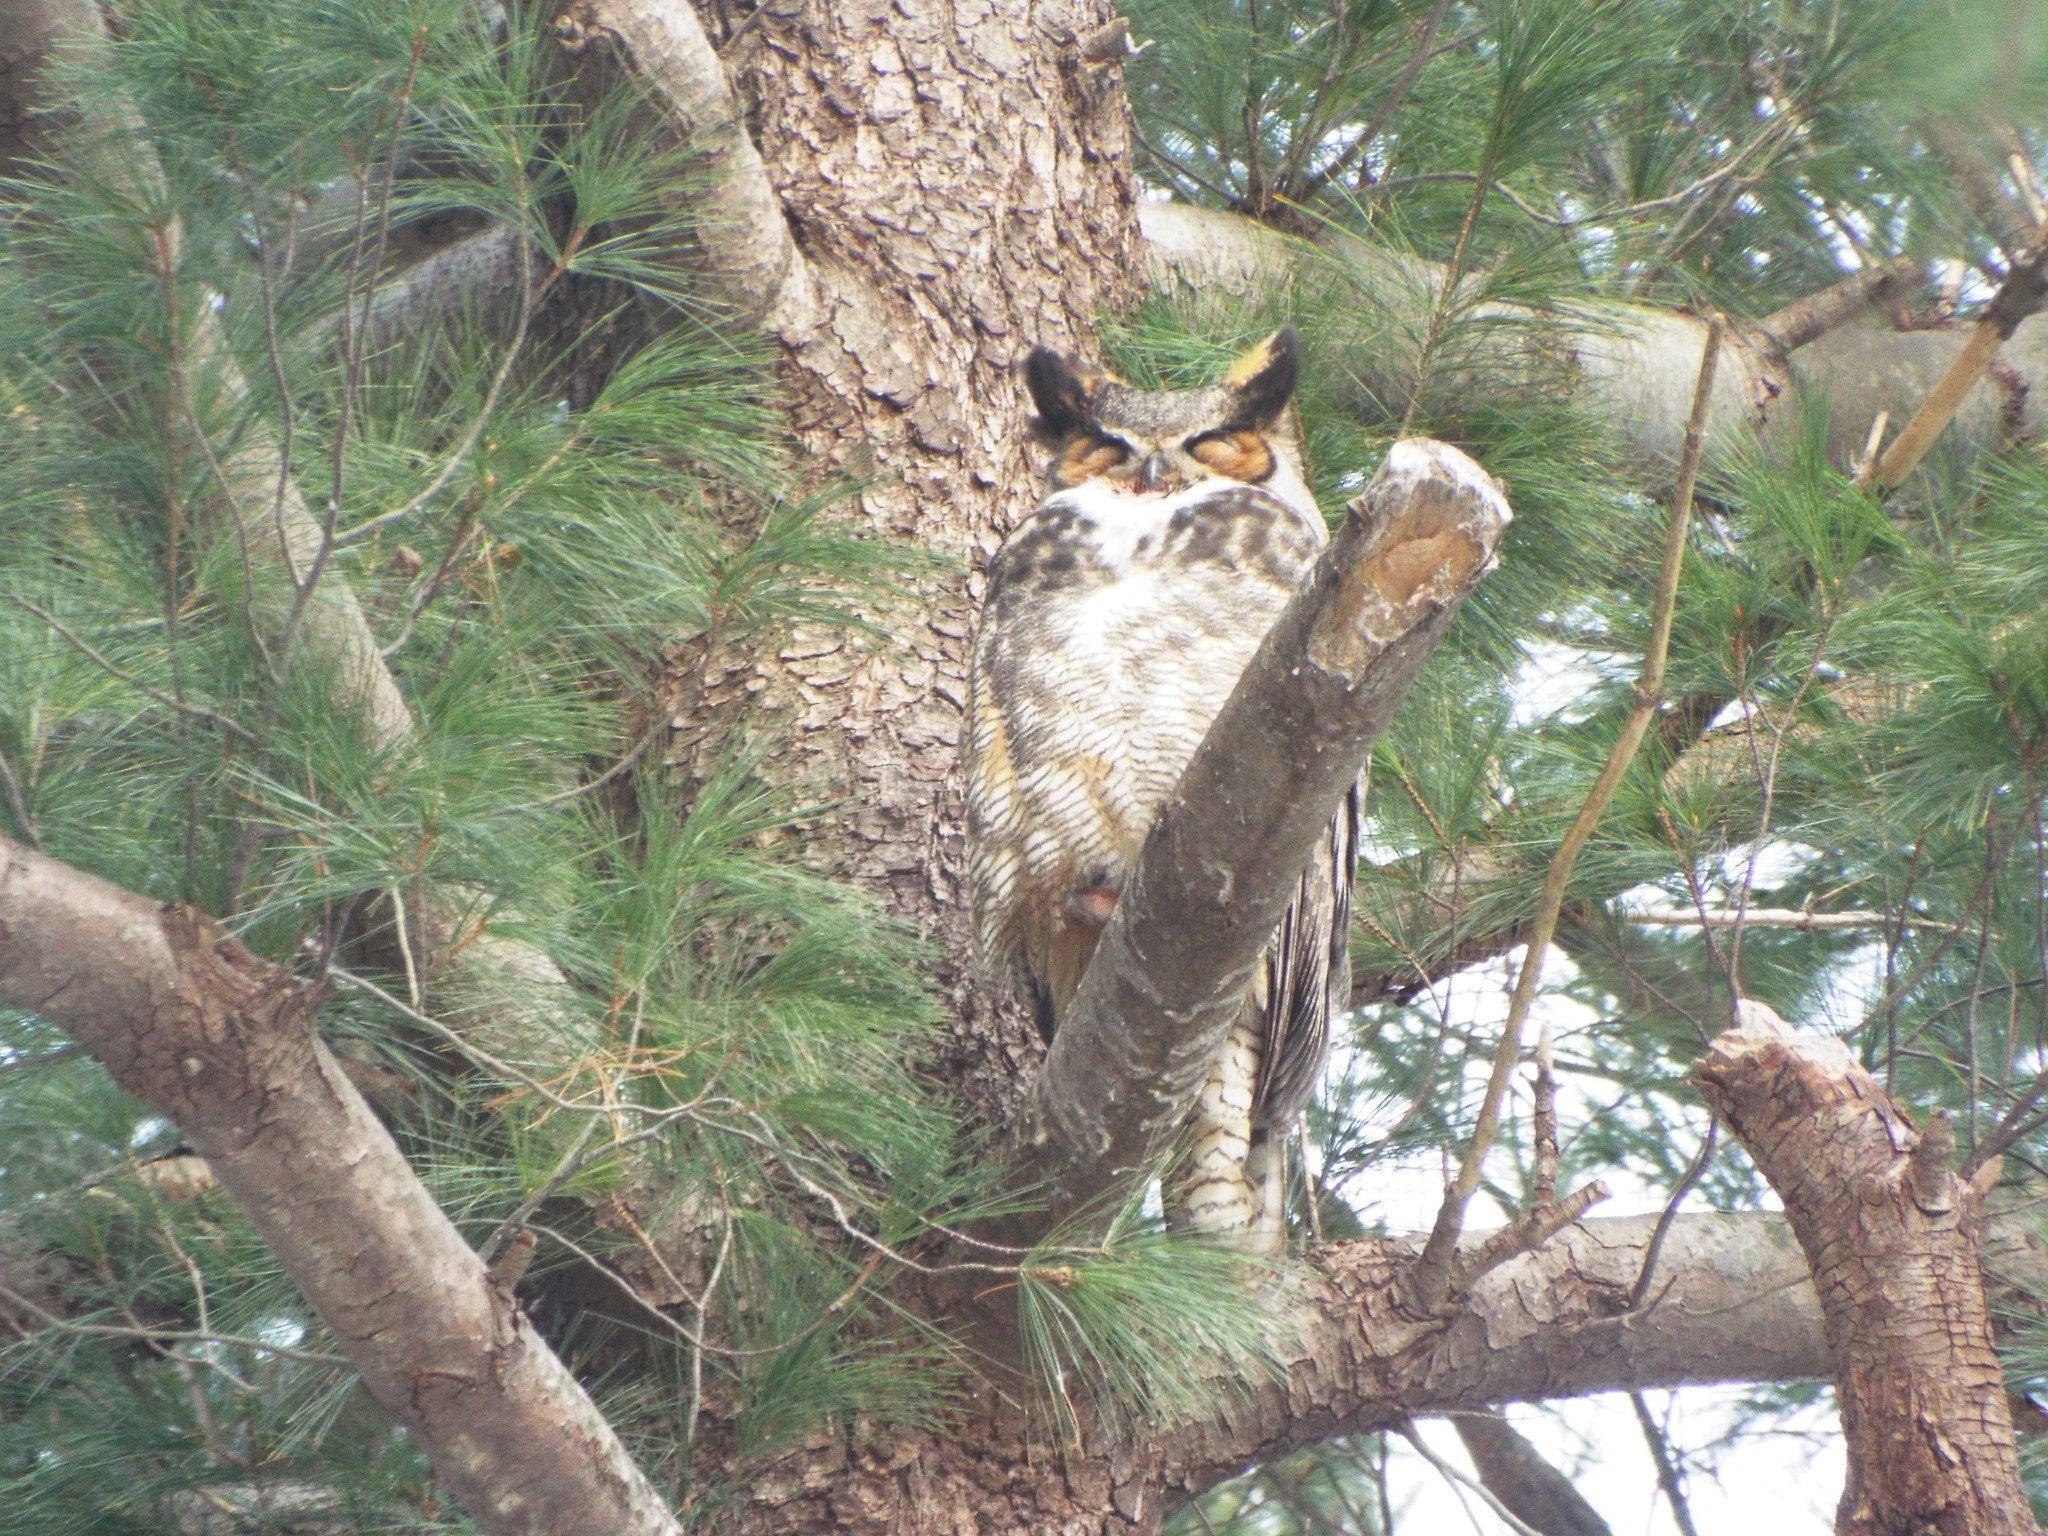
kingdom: Animalia
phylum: Chordata
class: Aves
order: Strigiformes
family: Strigidae
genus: Bubo
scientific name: Bubo virginianus
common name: Great horned owl
